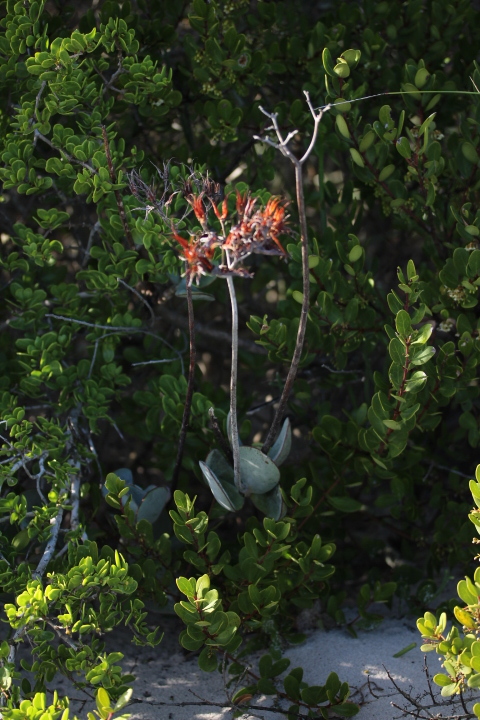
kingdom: Plantae
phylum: Tracheophyta
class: Magnoliopsida
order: Saxifragales
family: Crassulaceae
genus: Cotyledon
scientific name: Cotyledon orbiculata
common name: Pig's ear
